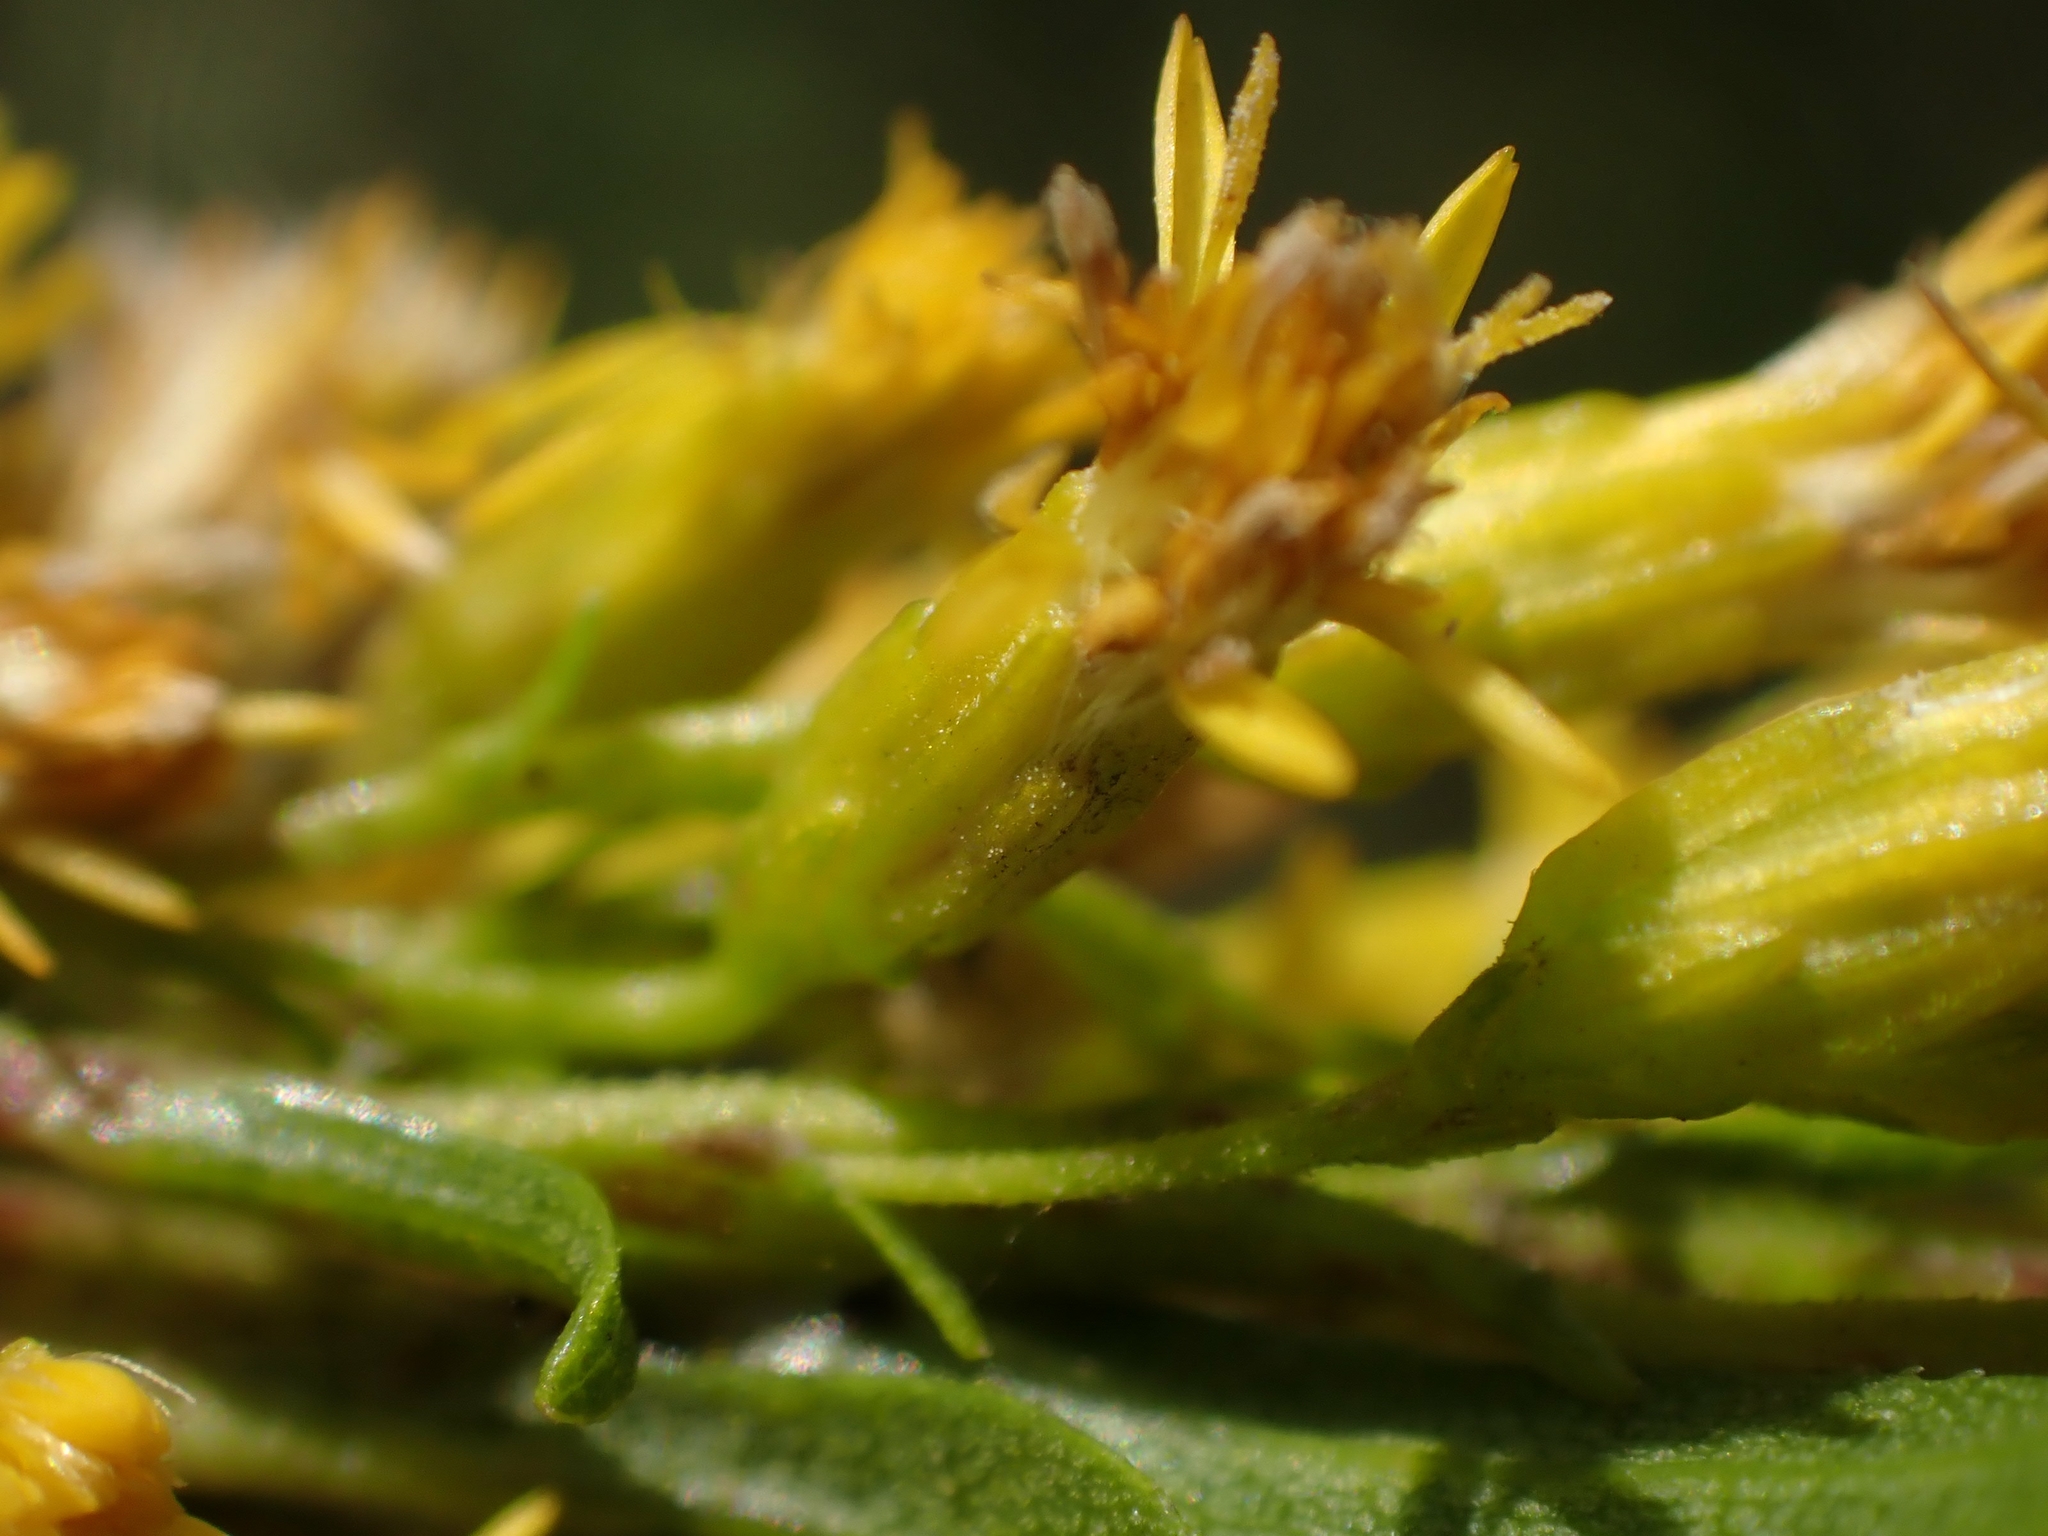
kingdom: Plantae
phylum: Tracheophyta
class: Magnoliopsida
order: Asterales
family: Asteraceae
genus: Solidago
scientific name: Solidago uliginosa
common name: Bog goldenrod
